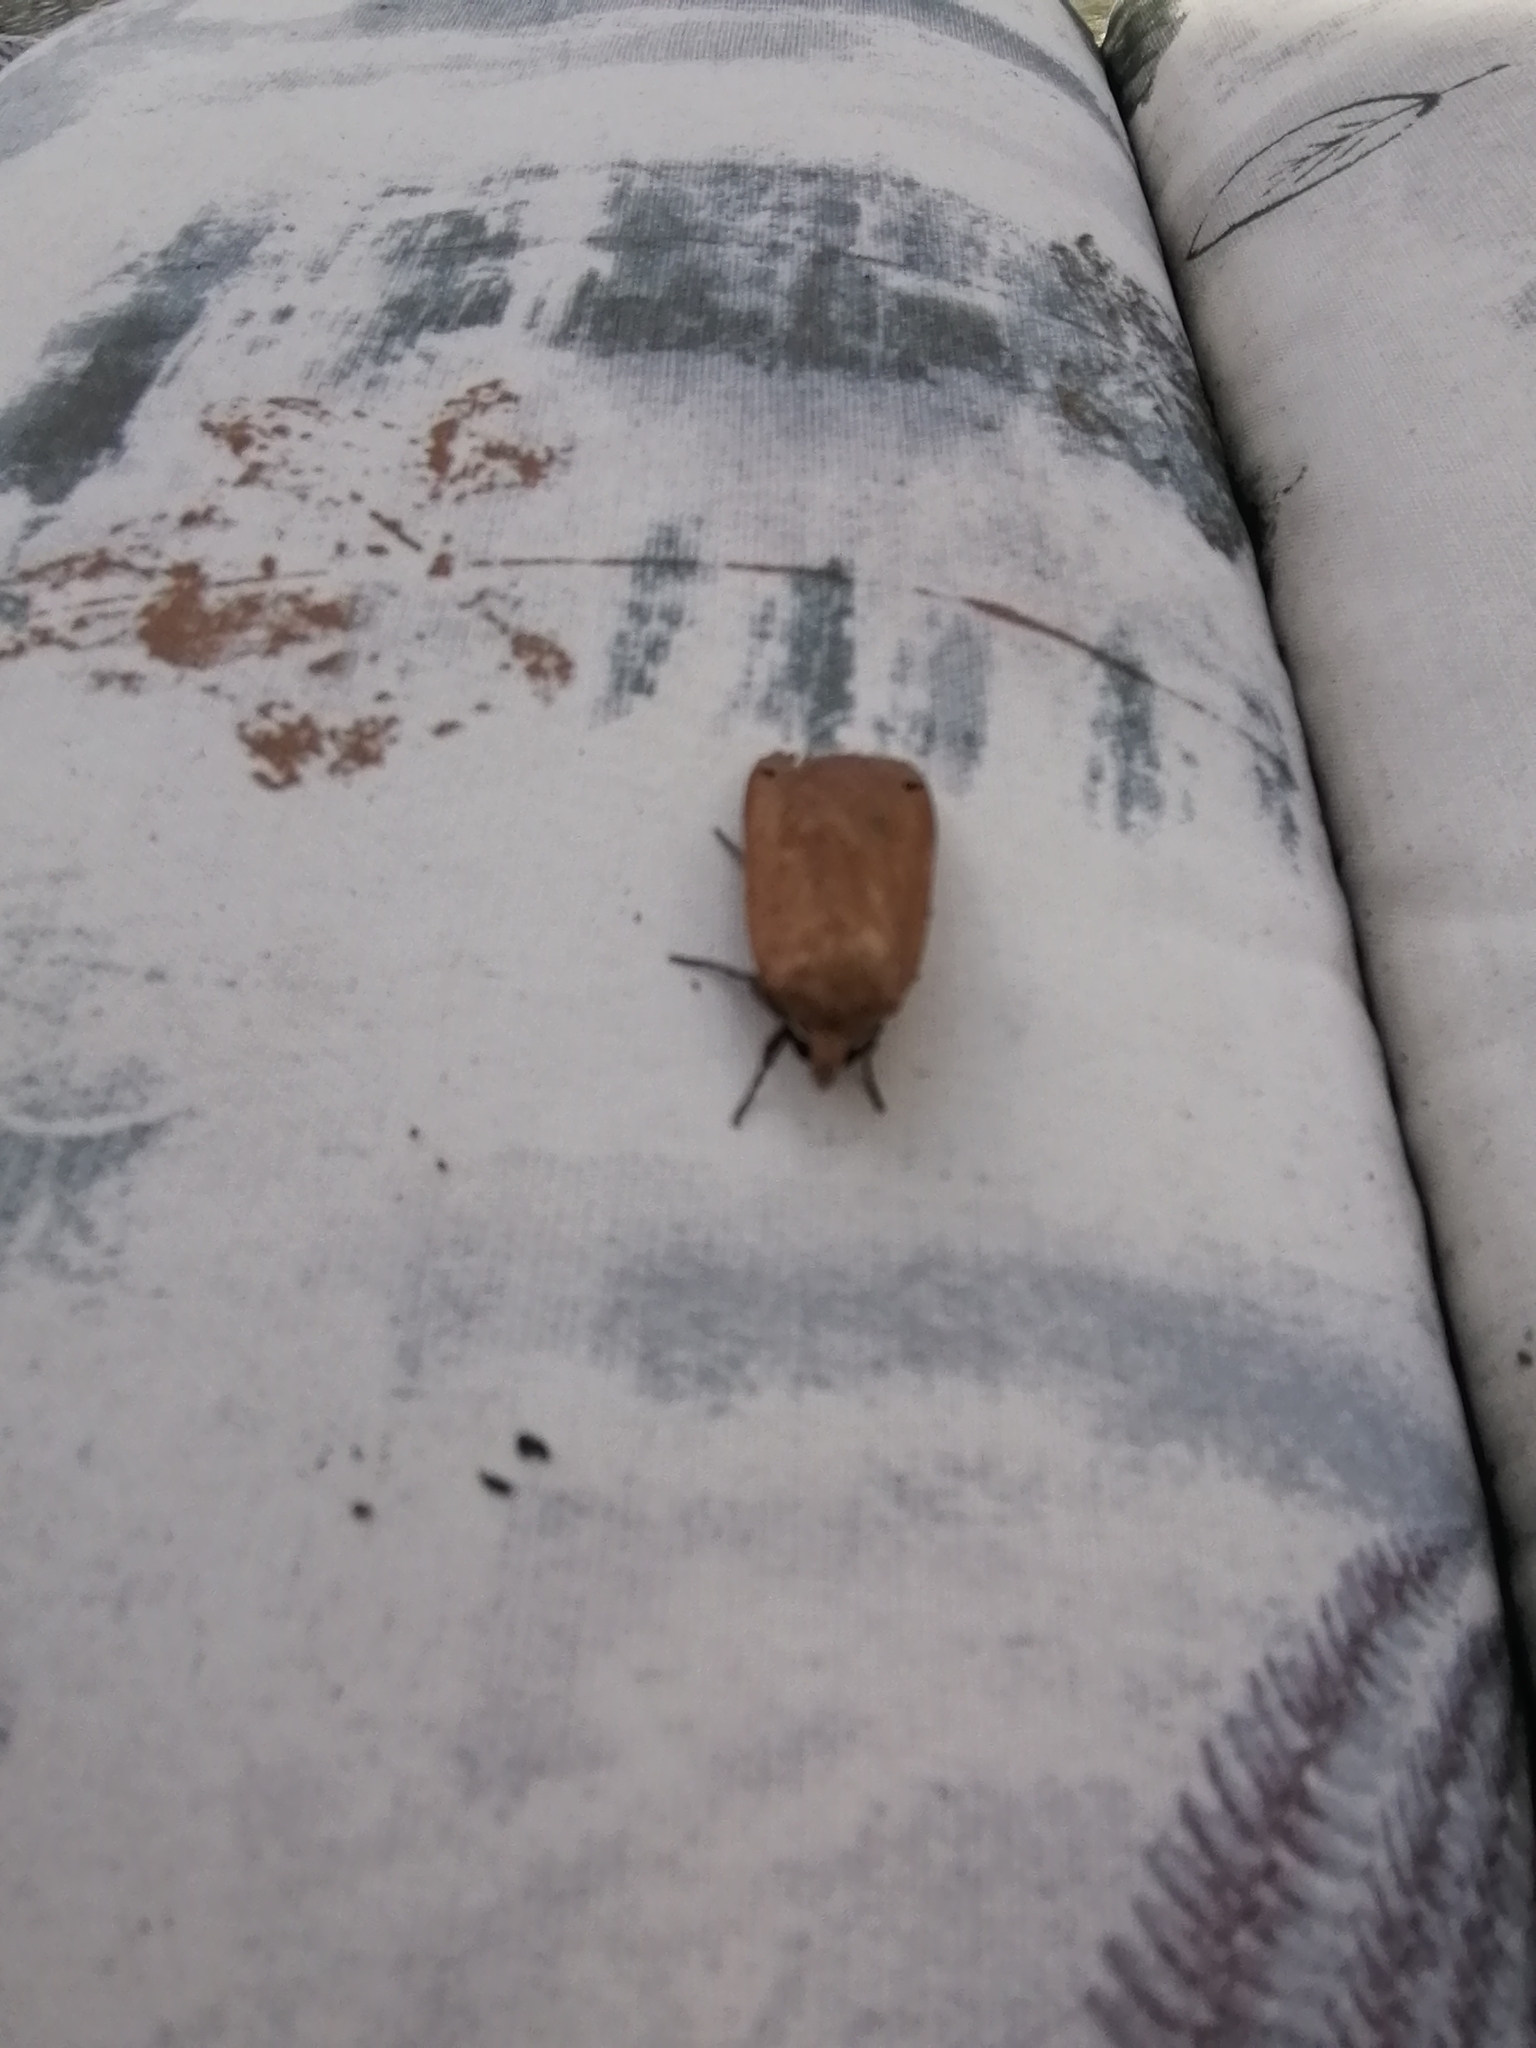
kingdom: Animalia
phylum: Arthropoda
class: Insecta
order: Lepidoptera
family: Noctuidae
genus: Noctua
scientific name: Noctua pronuba
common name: Large yellow underwing
